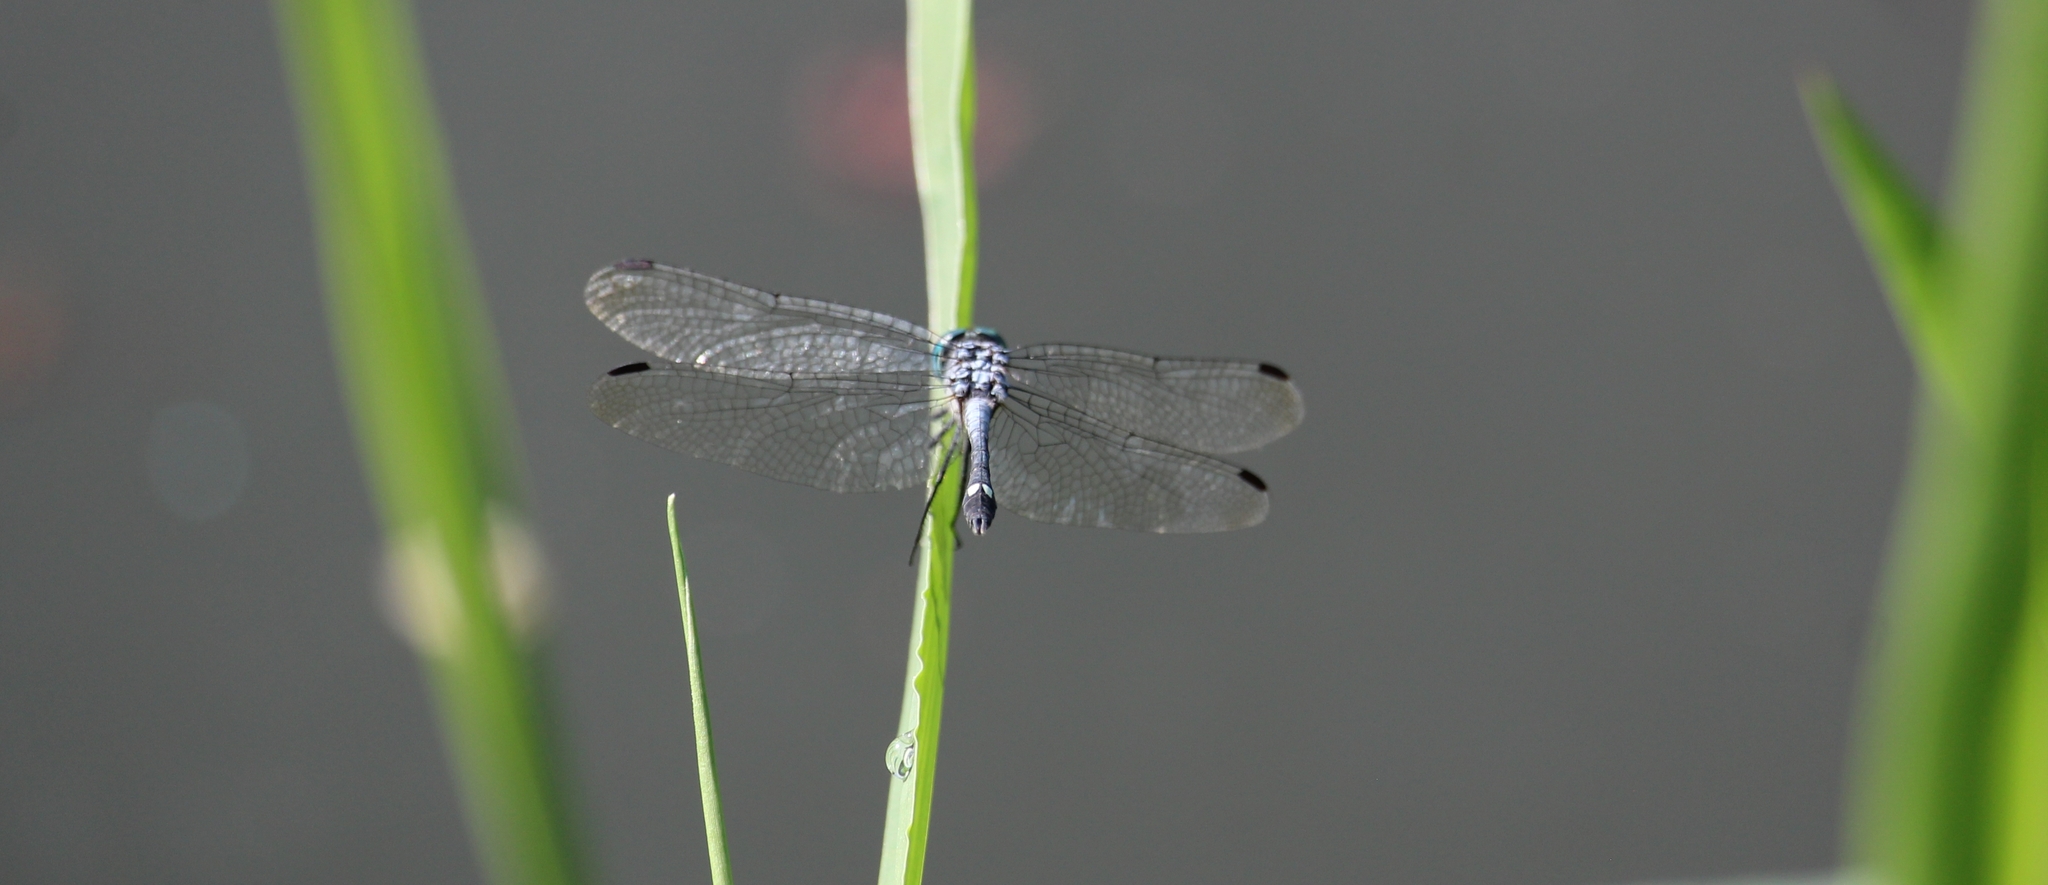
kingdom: Animalia
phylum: Arthropoda
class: Insecta
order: Odonata
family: Libellulidae
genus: Micrathyria
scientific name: Micrathyria aequalis
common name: Spot-tailed dasher
